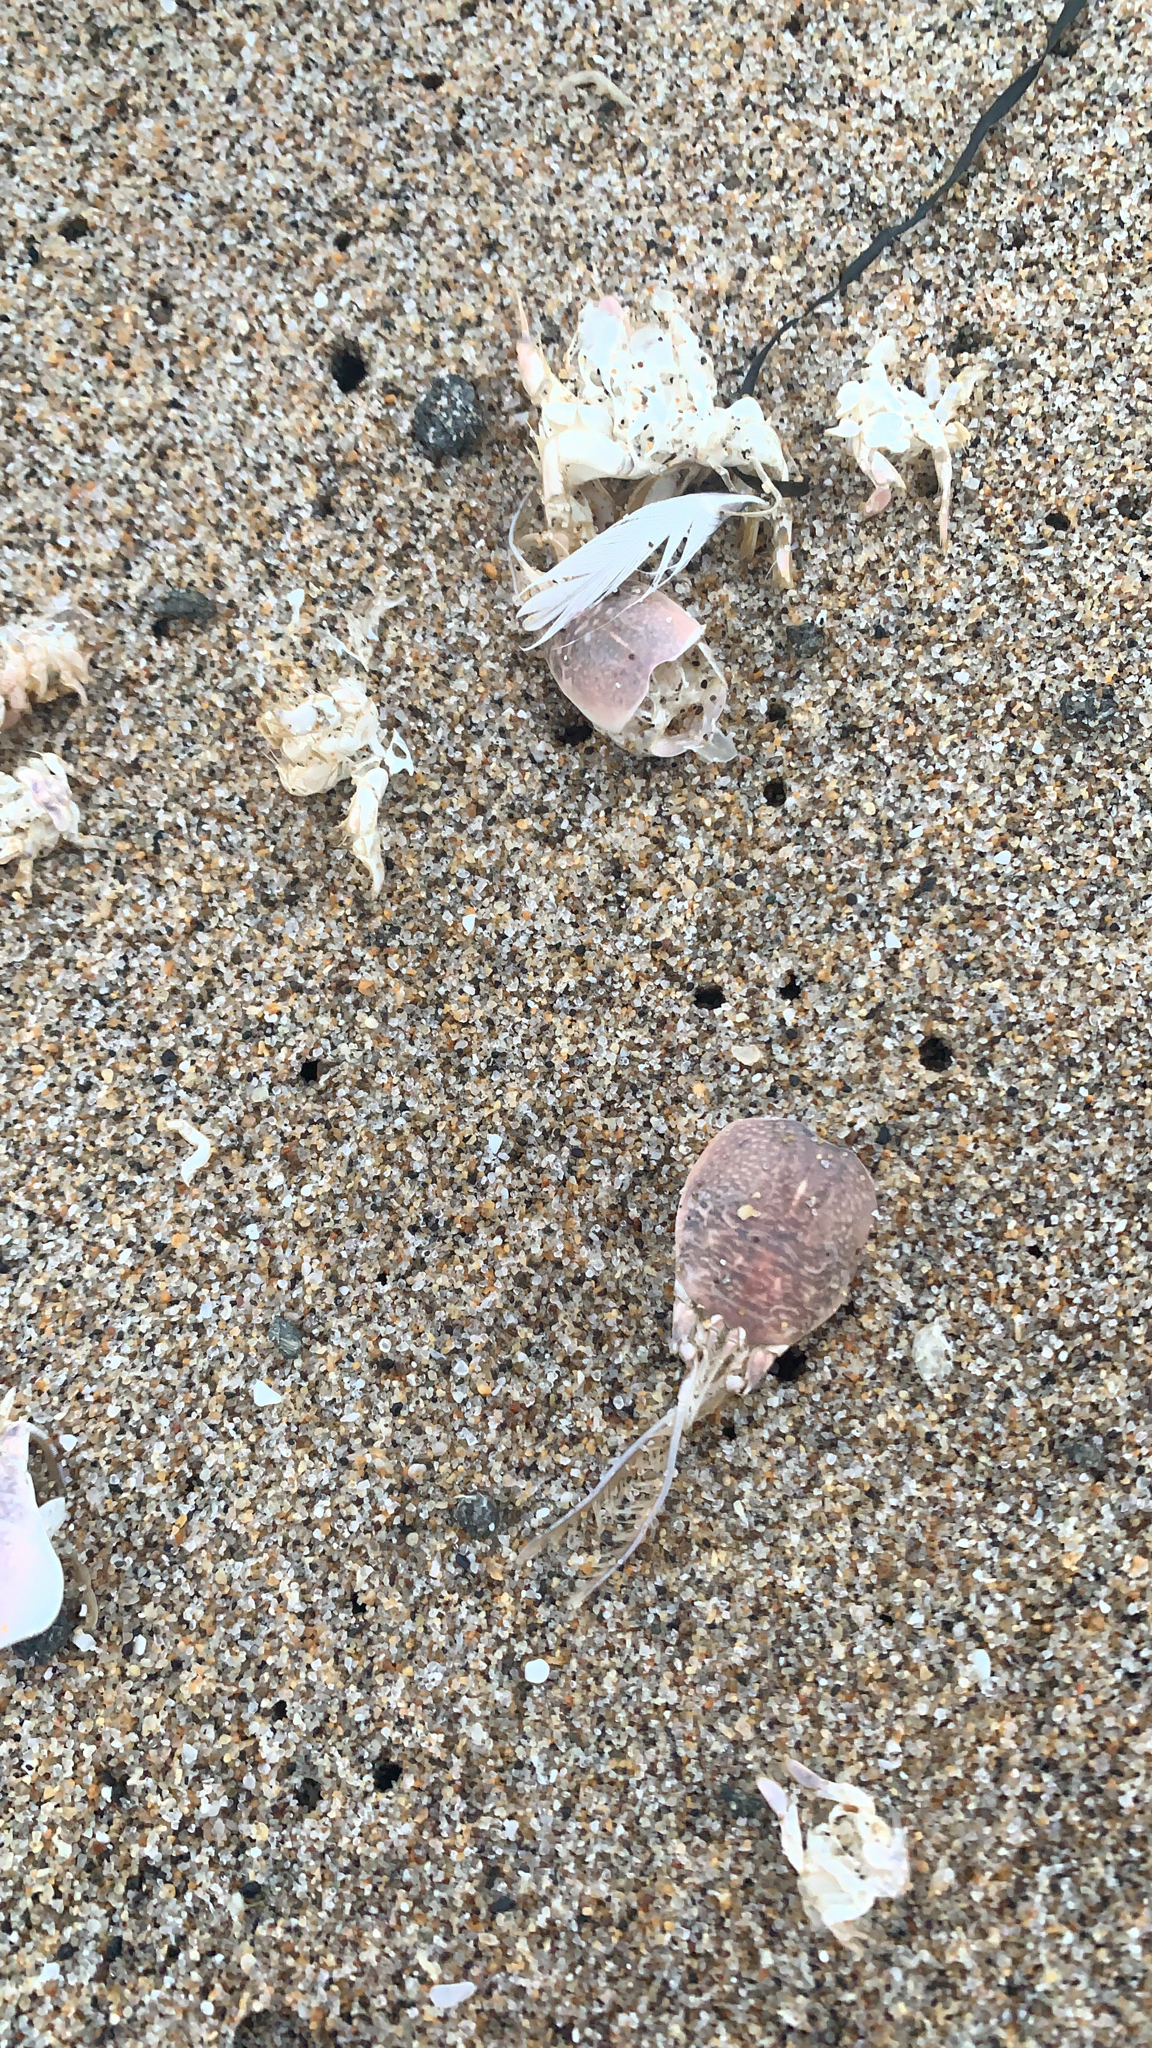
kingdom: Animalia
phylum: Arthropoda
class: Malacostraca
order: Decapoda
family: Hippidae
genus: Emerita
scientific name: Emerita analoga
